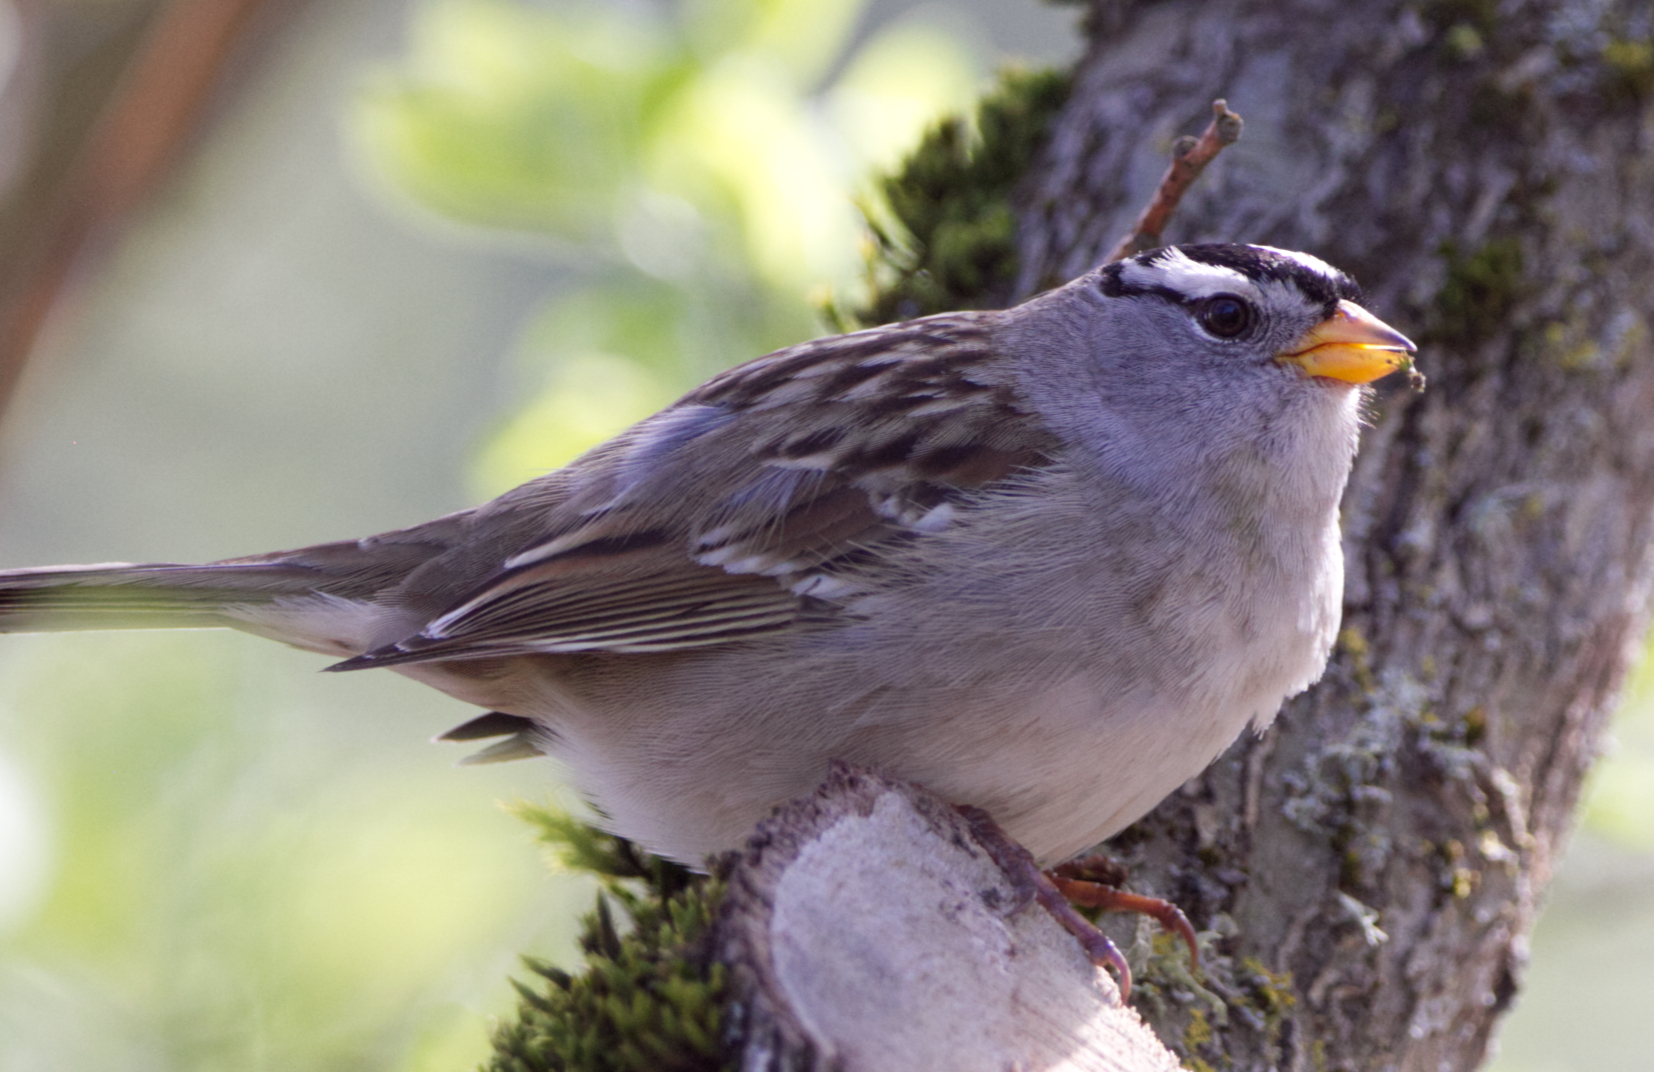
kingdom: Animalia
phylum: Chordata
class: Aves
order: Passeriformes
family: Passerellidae
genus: Zonotrichia
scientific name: Zonotrichia leucophrys
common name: White-crowned sparrow
